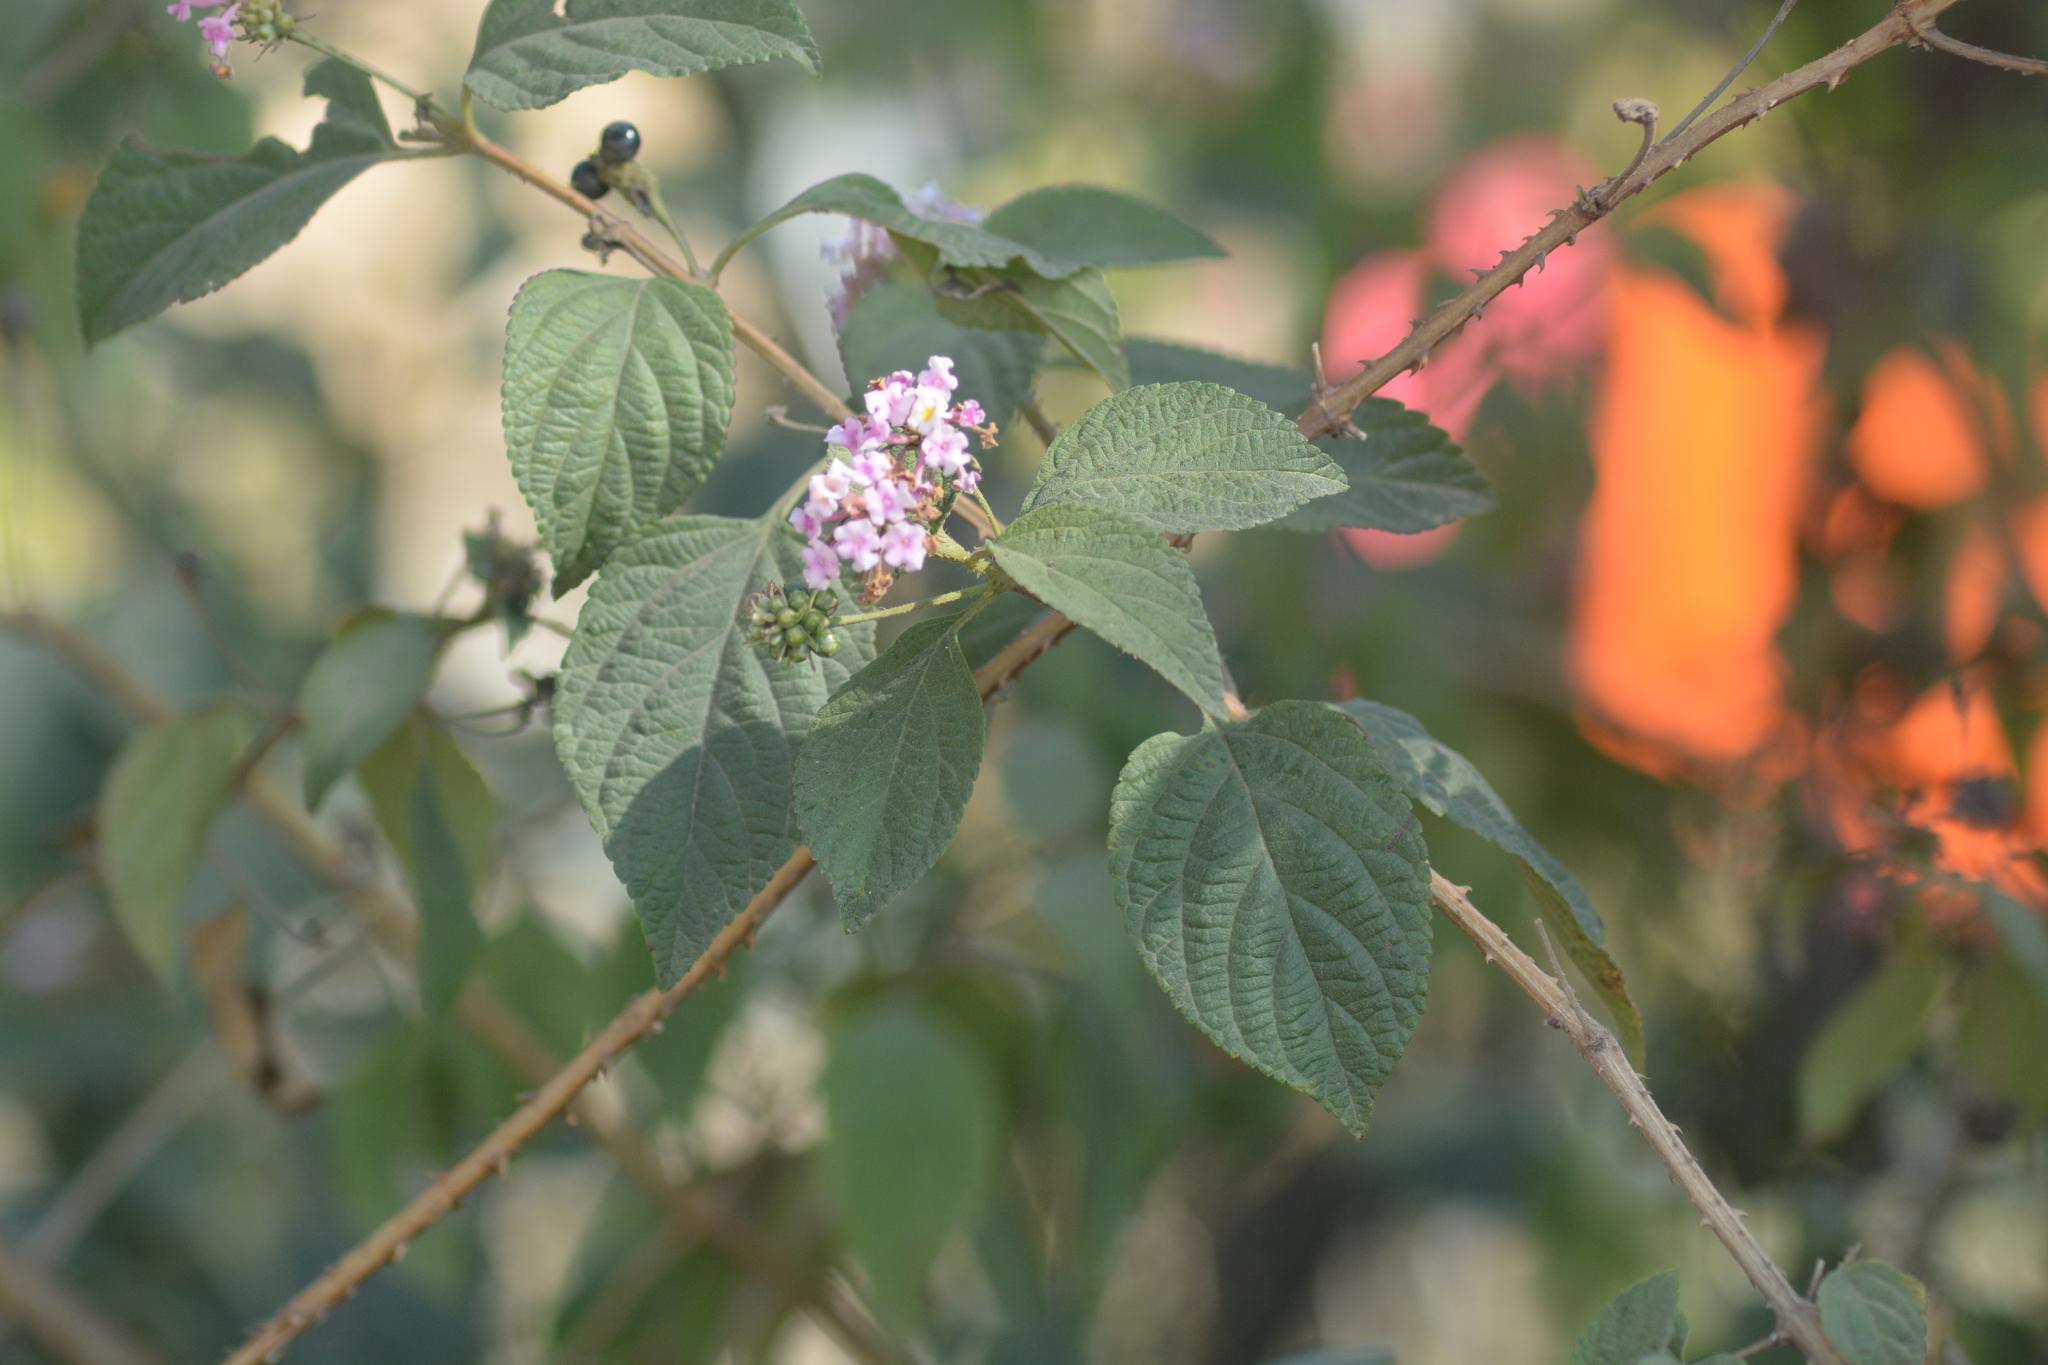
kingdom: Plantae
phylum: Tracheophyta
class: Magnoliopsida
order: Lamiales
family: Verbenaceae
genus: Lantana
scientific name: Lantana camara
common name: Lantana
